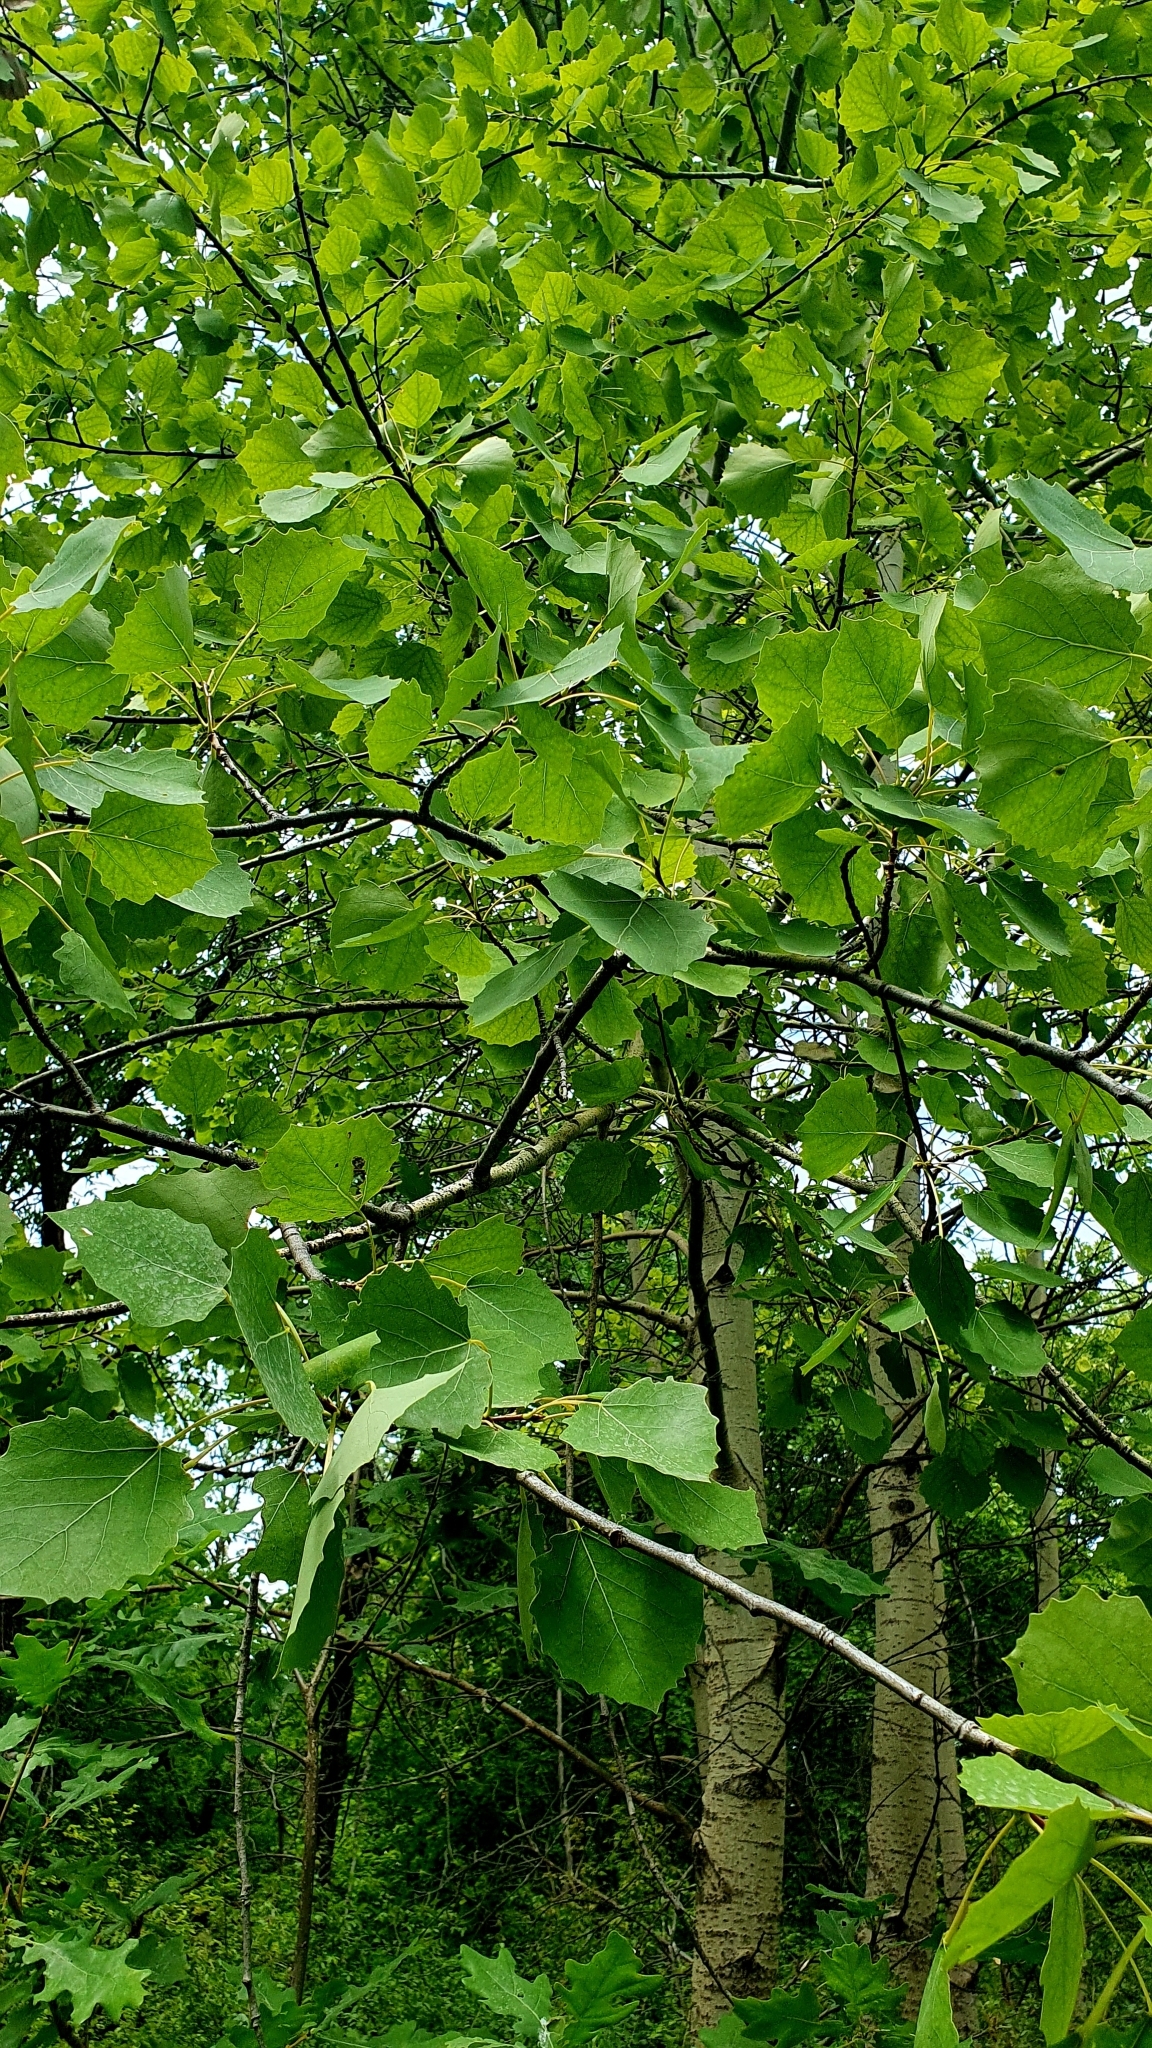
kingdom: Plantae
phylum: Tracheophyta
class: Magnoliopsida
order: Malpighiales
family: Salicaceae
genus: Populus
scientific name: Populus tremula
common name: European aspen
